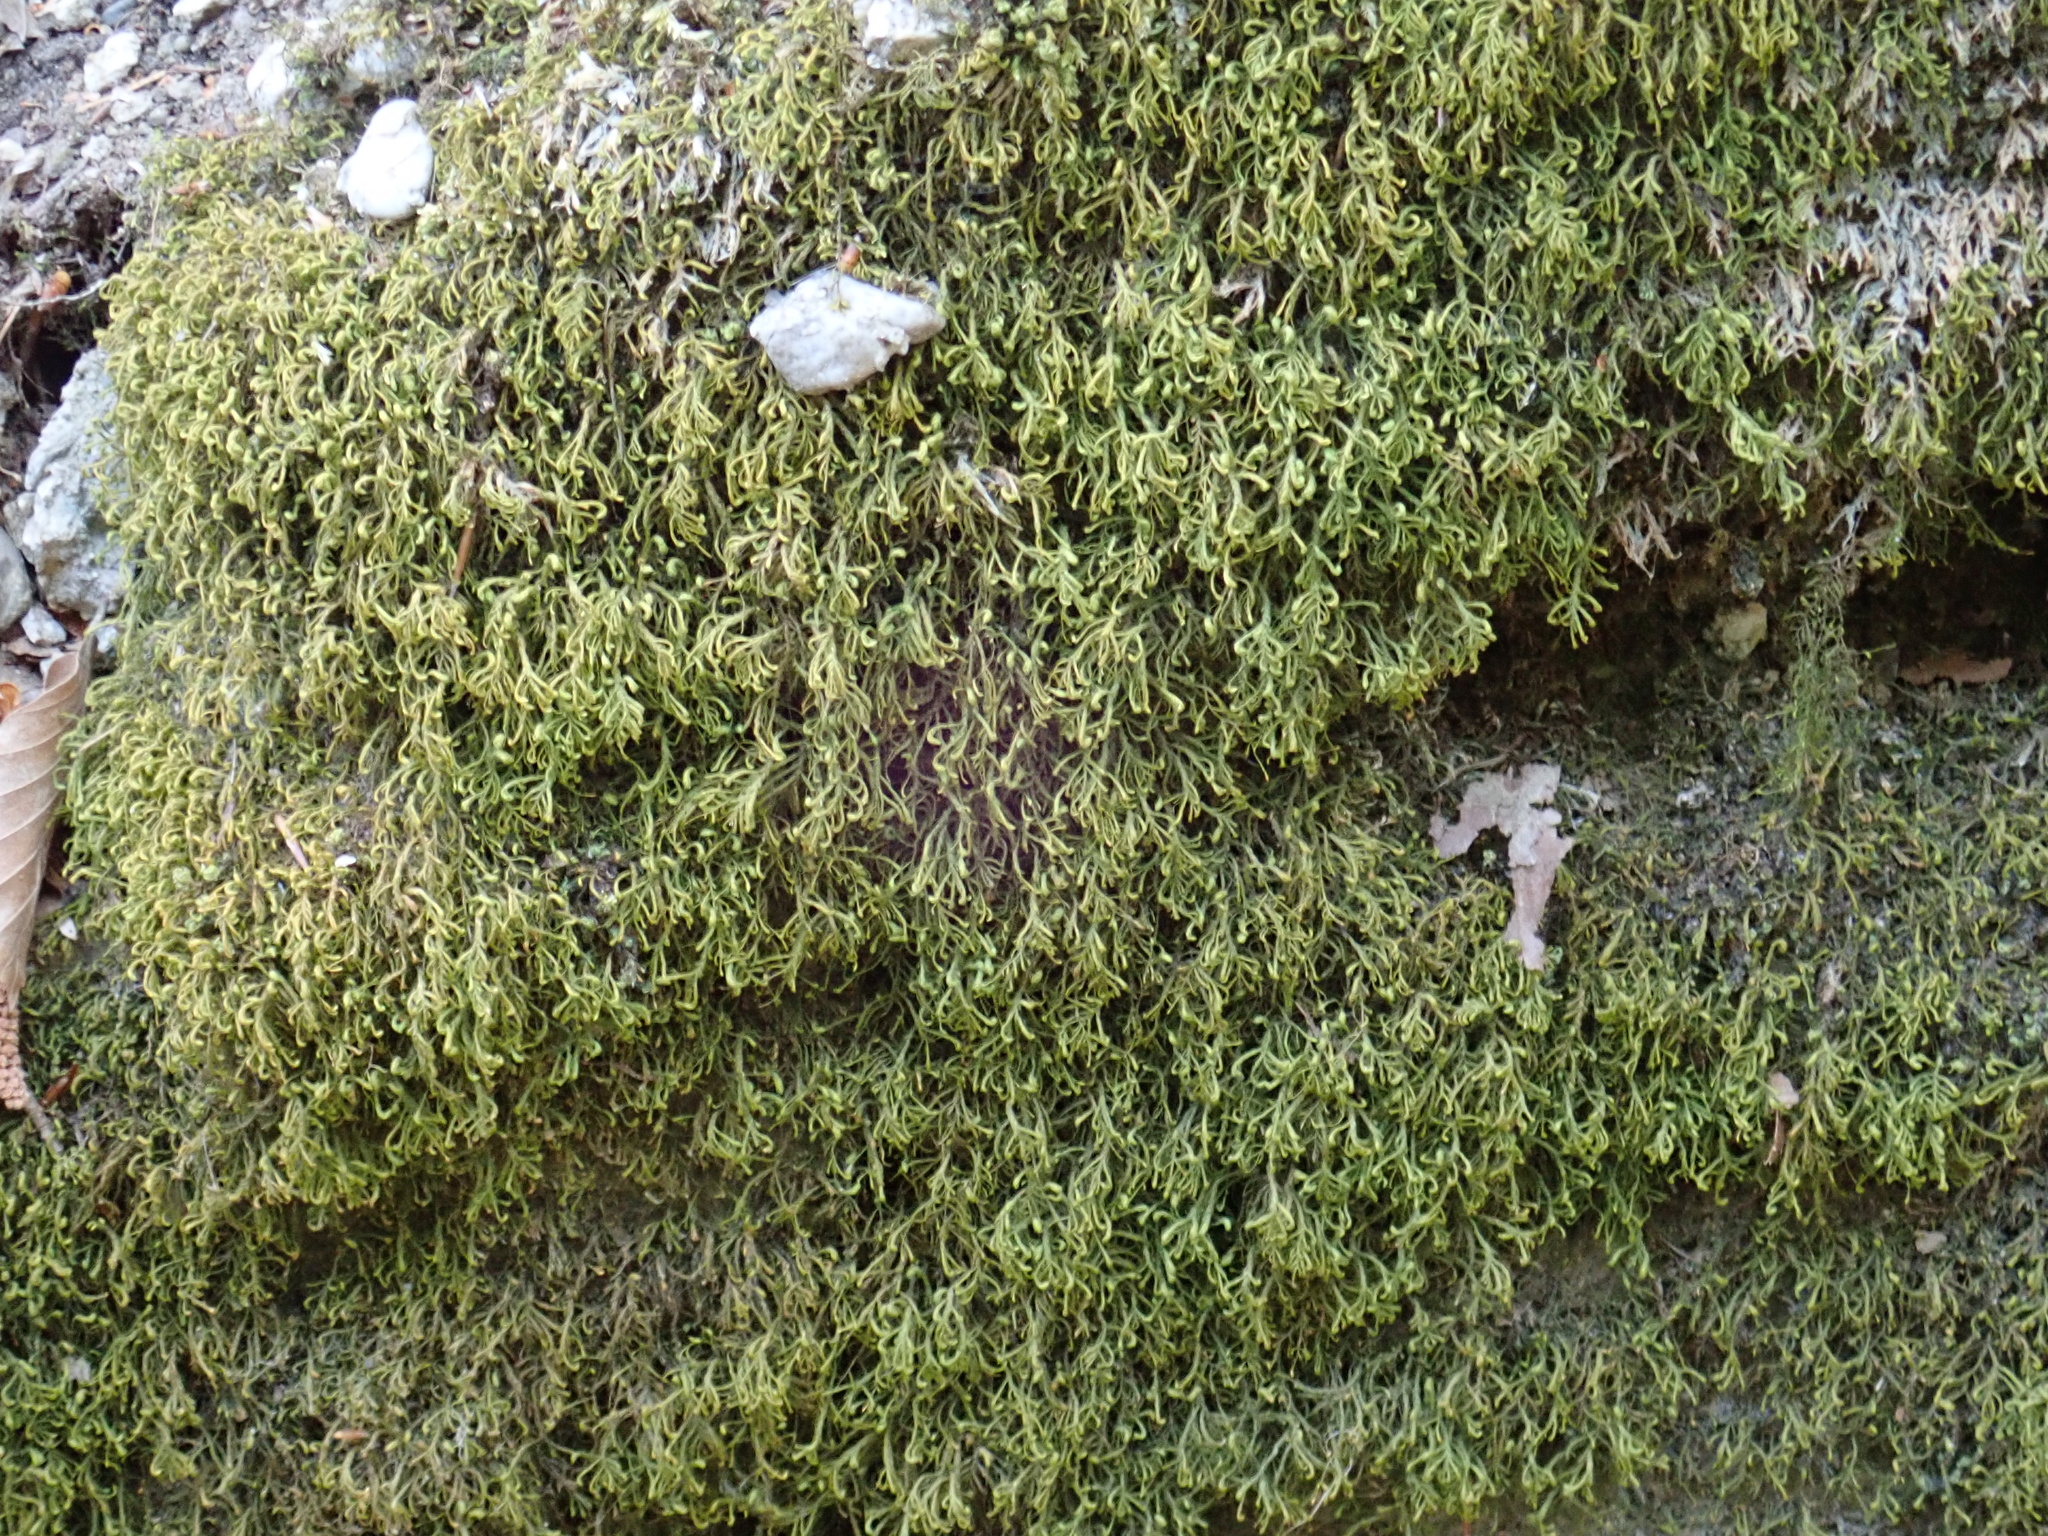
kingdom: Plantae
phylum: Bryophyta
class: Bryopsida
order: Hypnales
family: Neckeraceae
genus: Pseudanomodon
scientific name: Pseudanomodon attenuatus
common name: Tree-skirt moss
